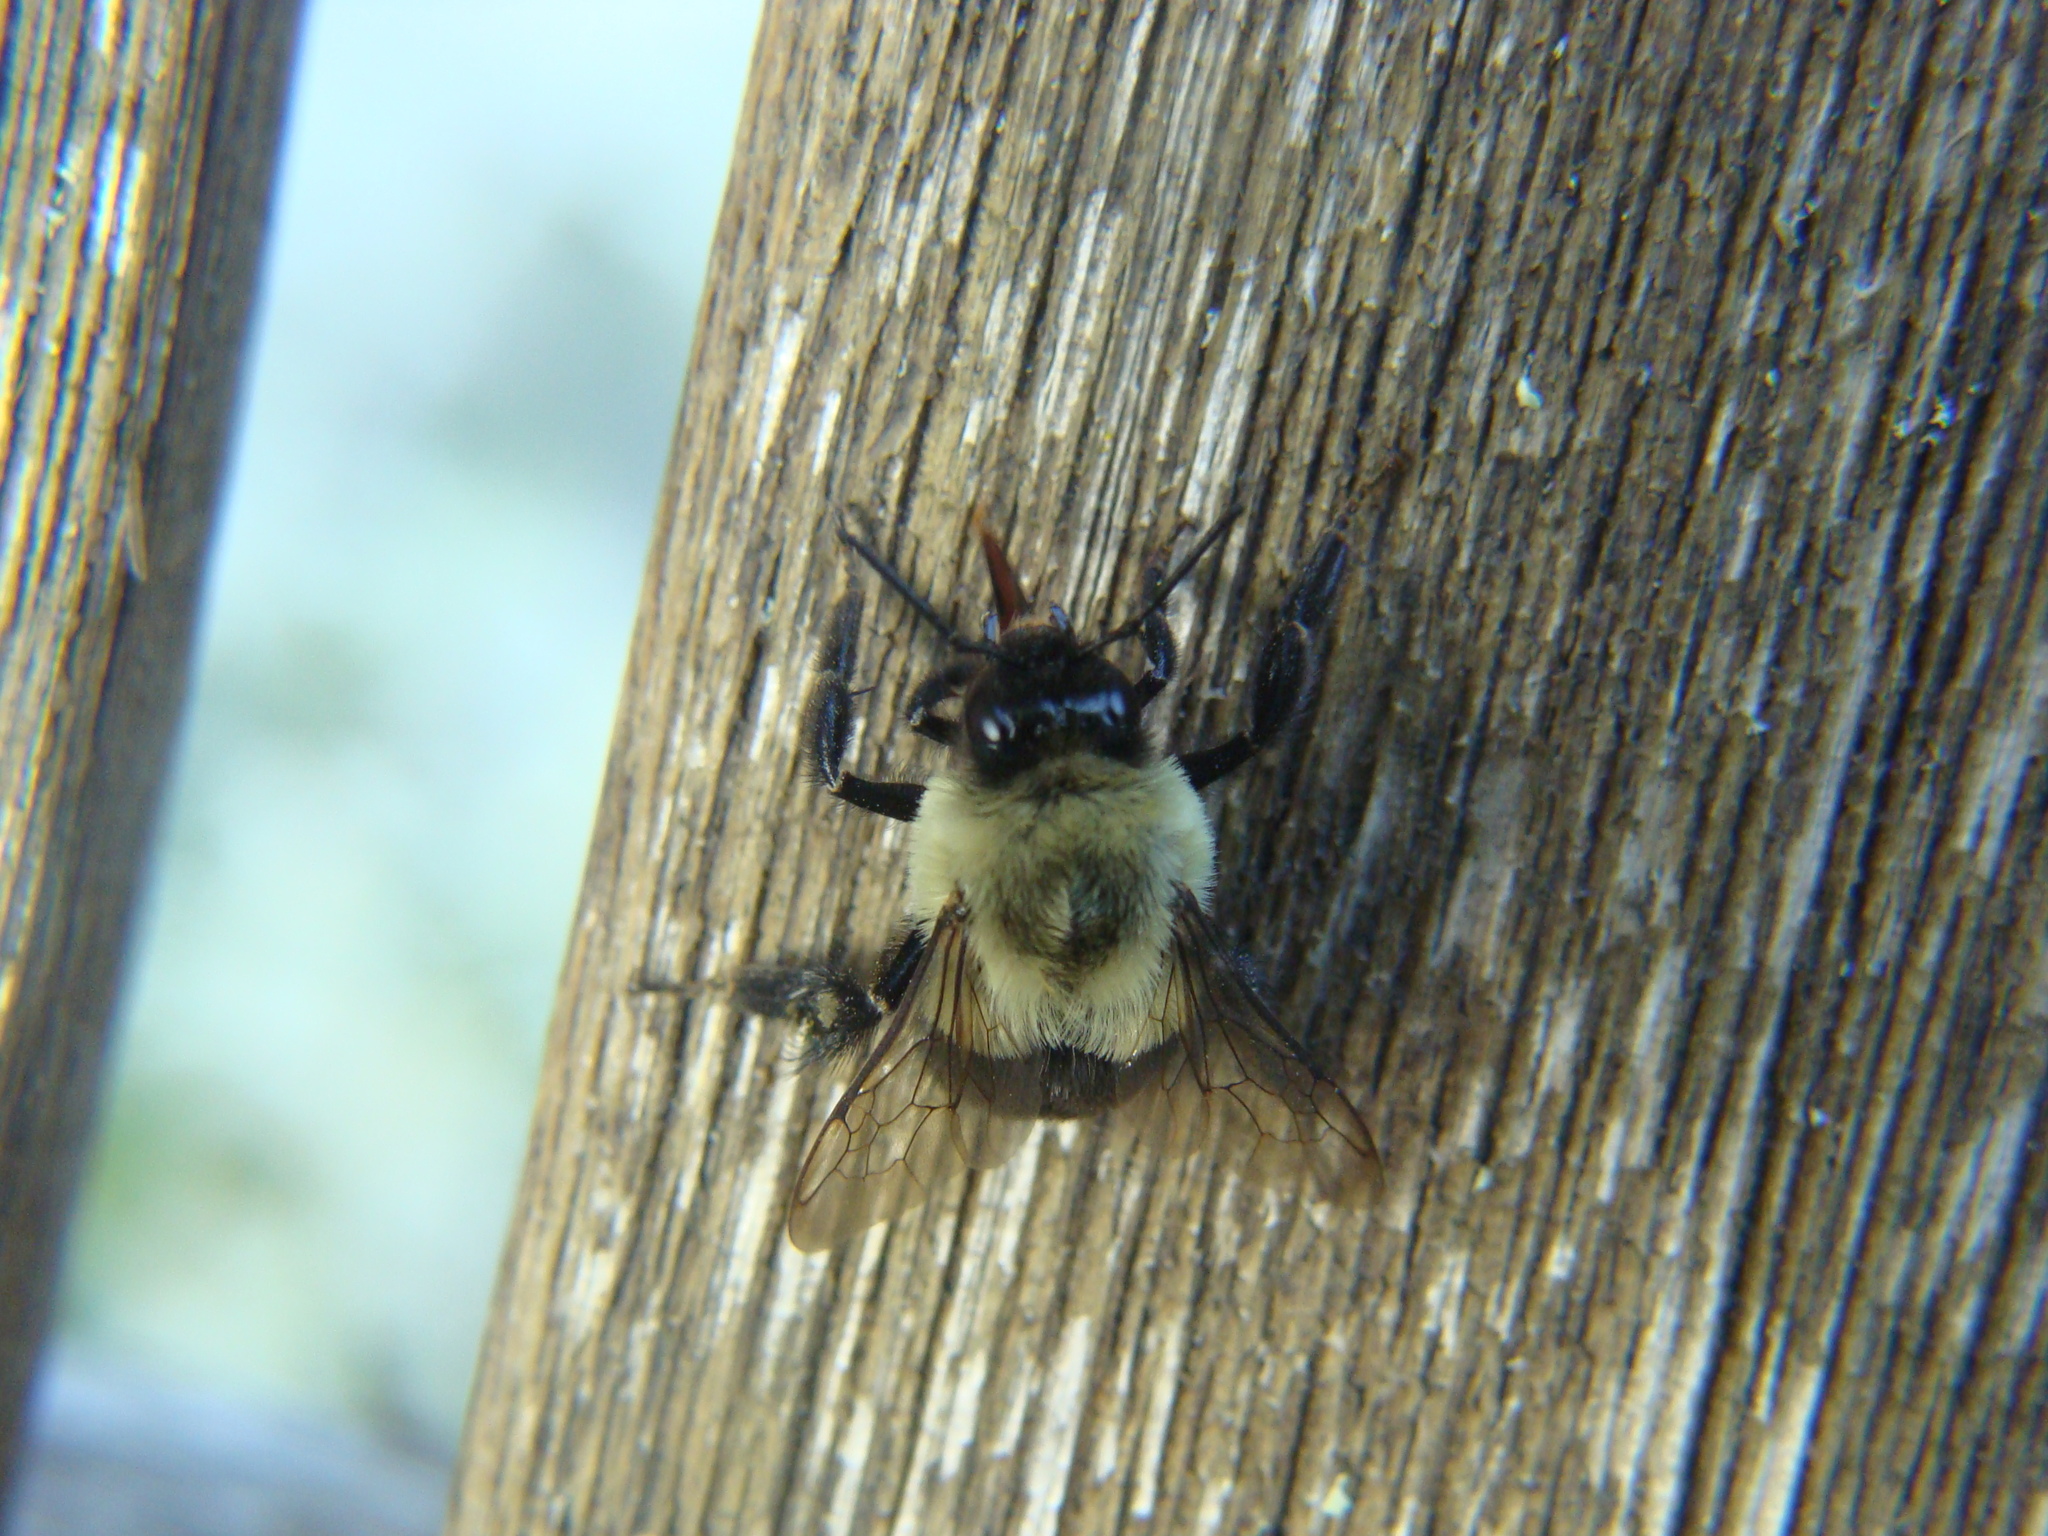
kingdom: Animalia
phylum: Arthropoda
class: Insecta
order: Hymenoptera
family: Apidae
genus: Bombus
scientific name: Bombus impatiens
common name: Common eastern bumble bee
